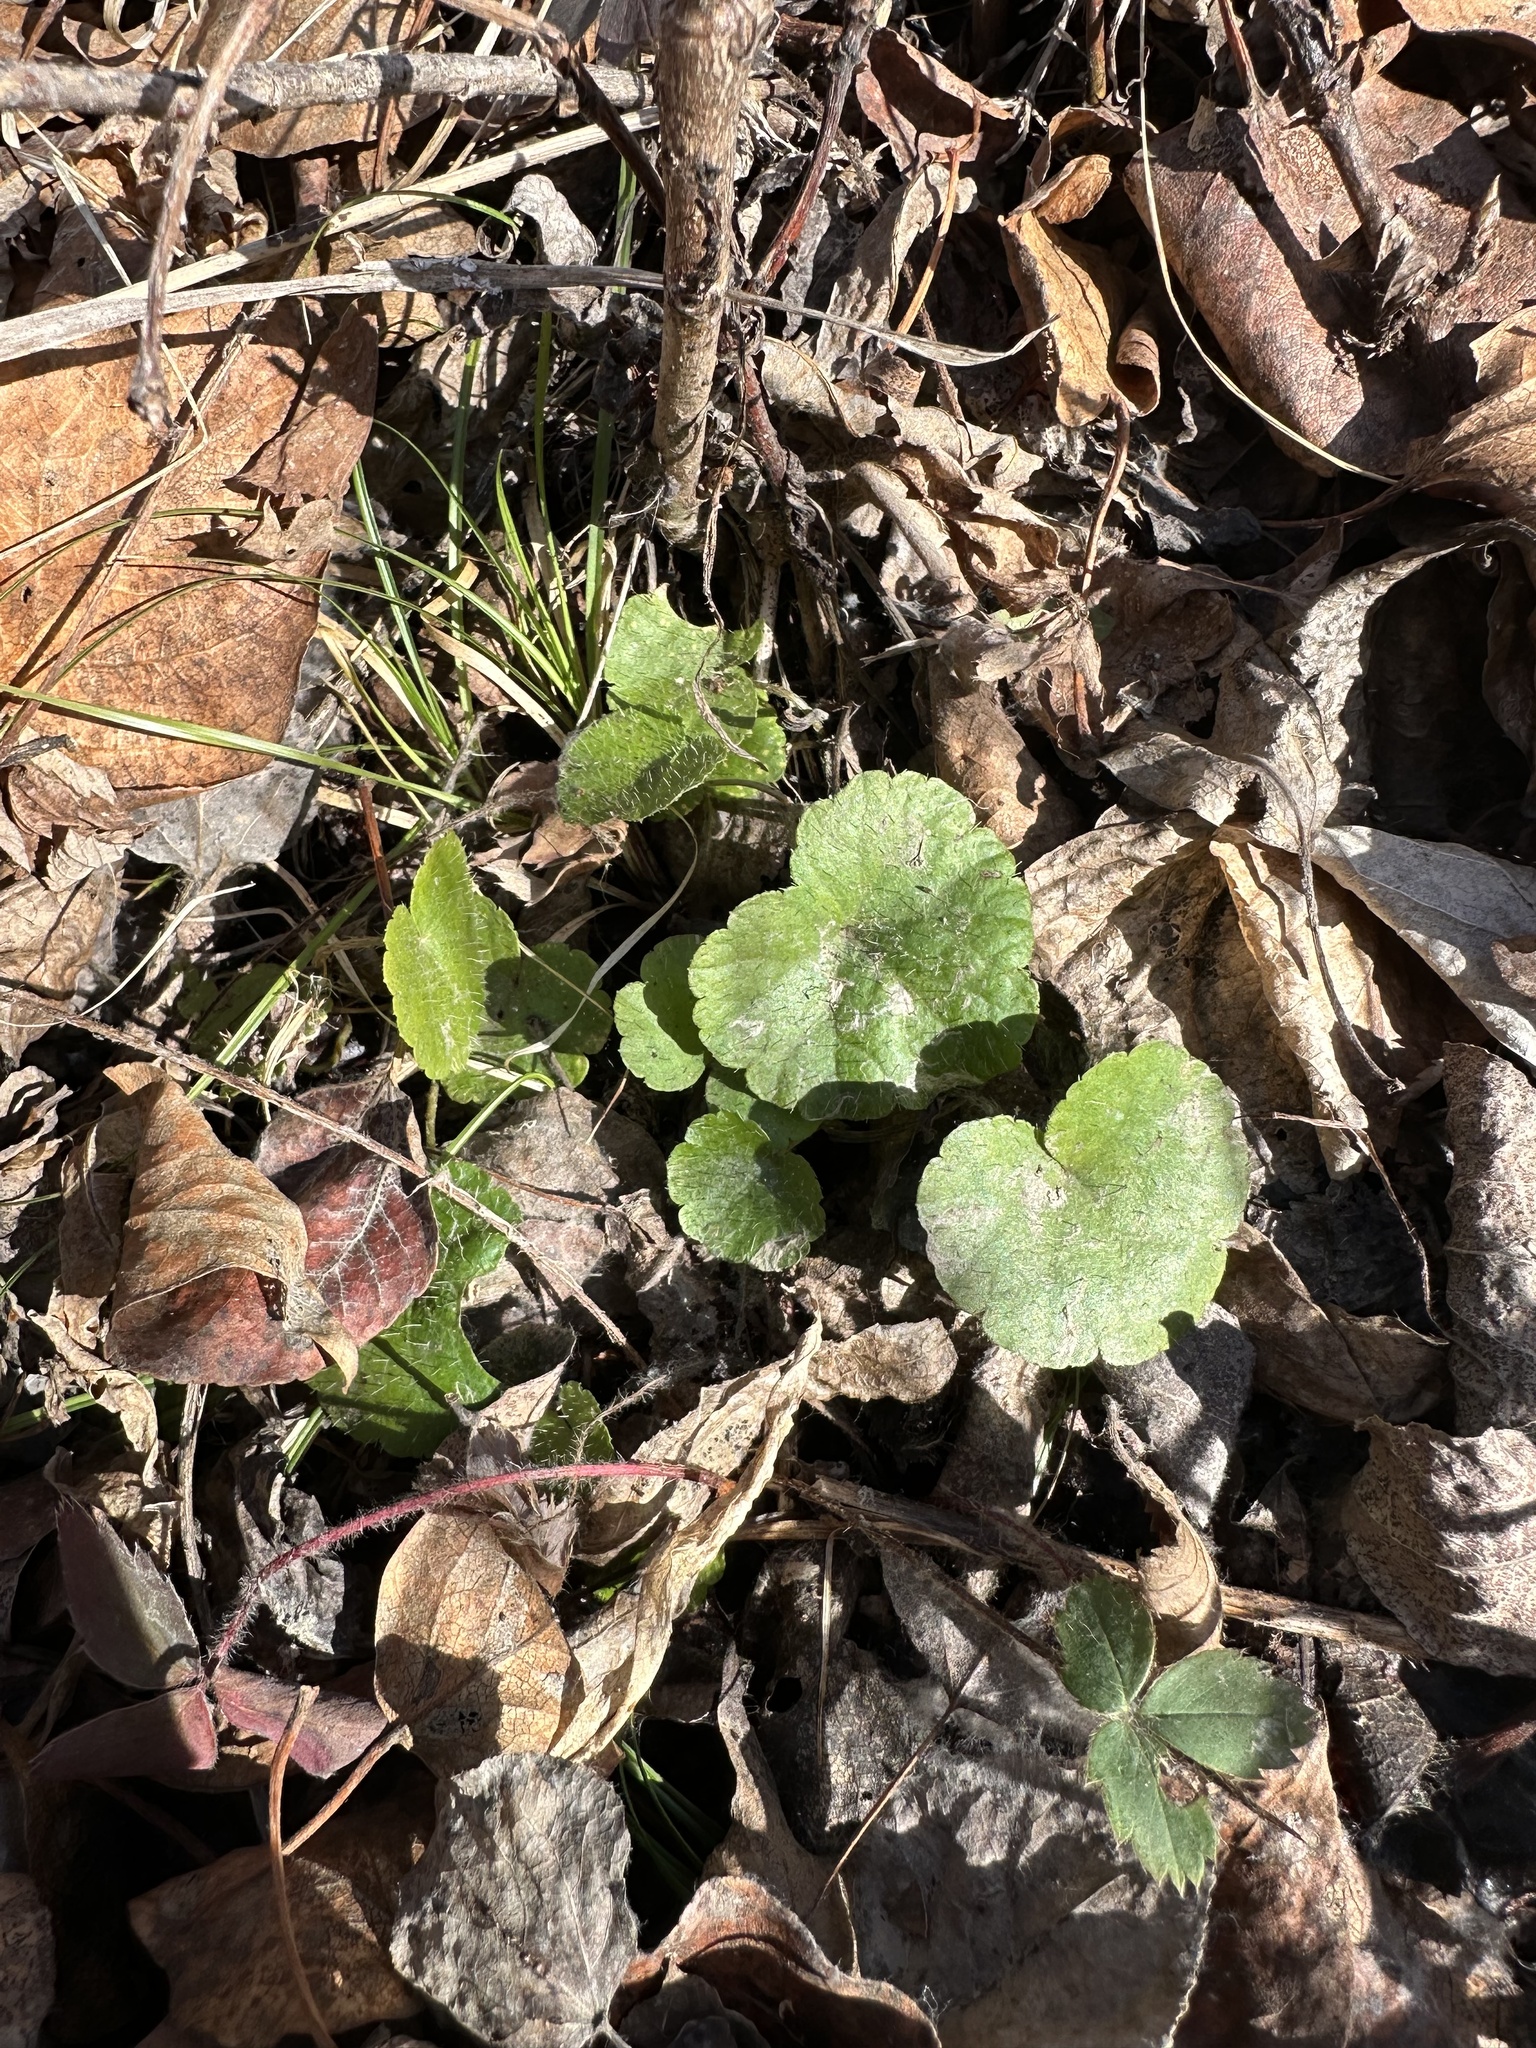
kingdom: Plantae
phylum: Tracheophyta
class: Magnoliopsida
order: Saxifragales
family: Saxifragaceae
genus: Mitella
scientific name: Mitella nuda
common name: Bare-stemmed bishop's-cap
